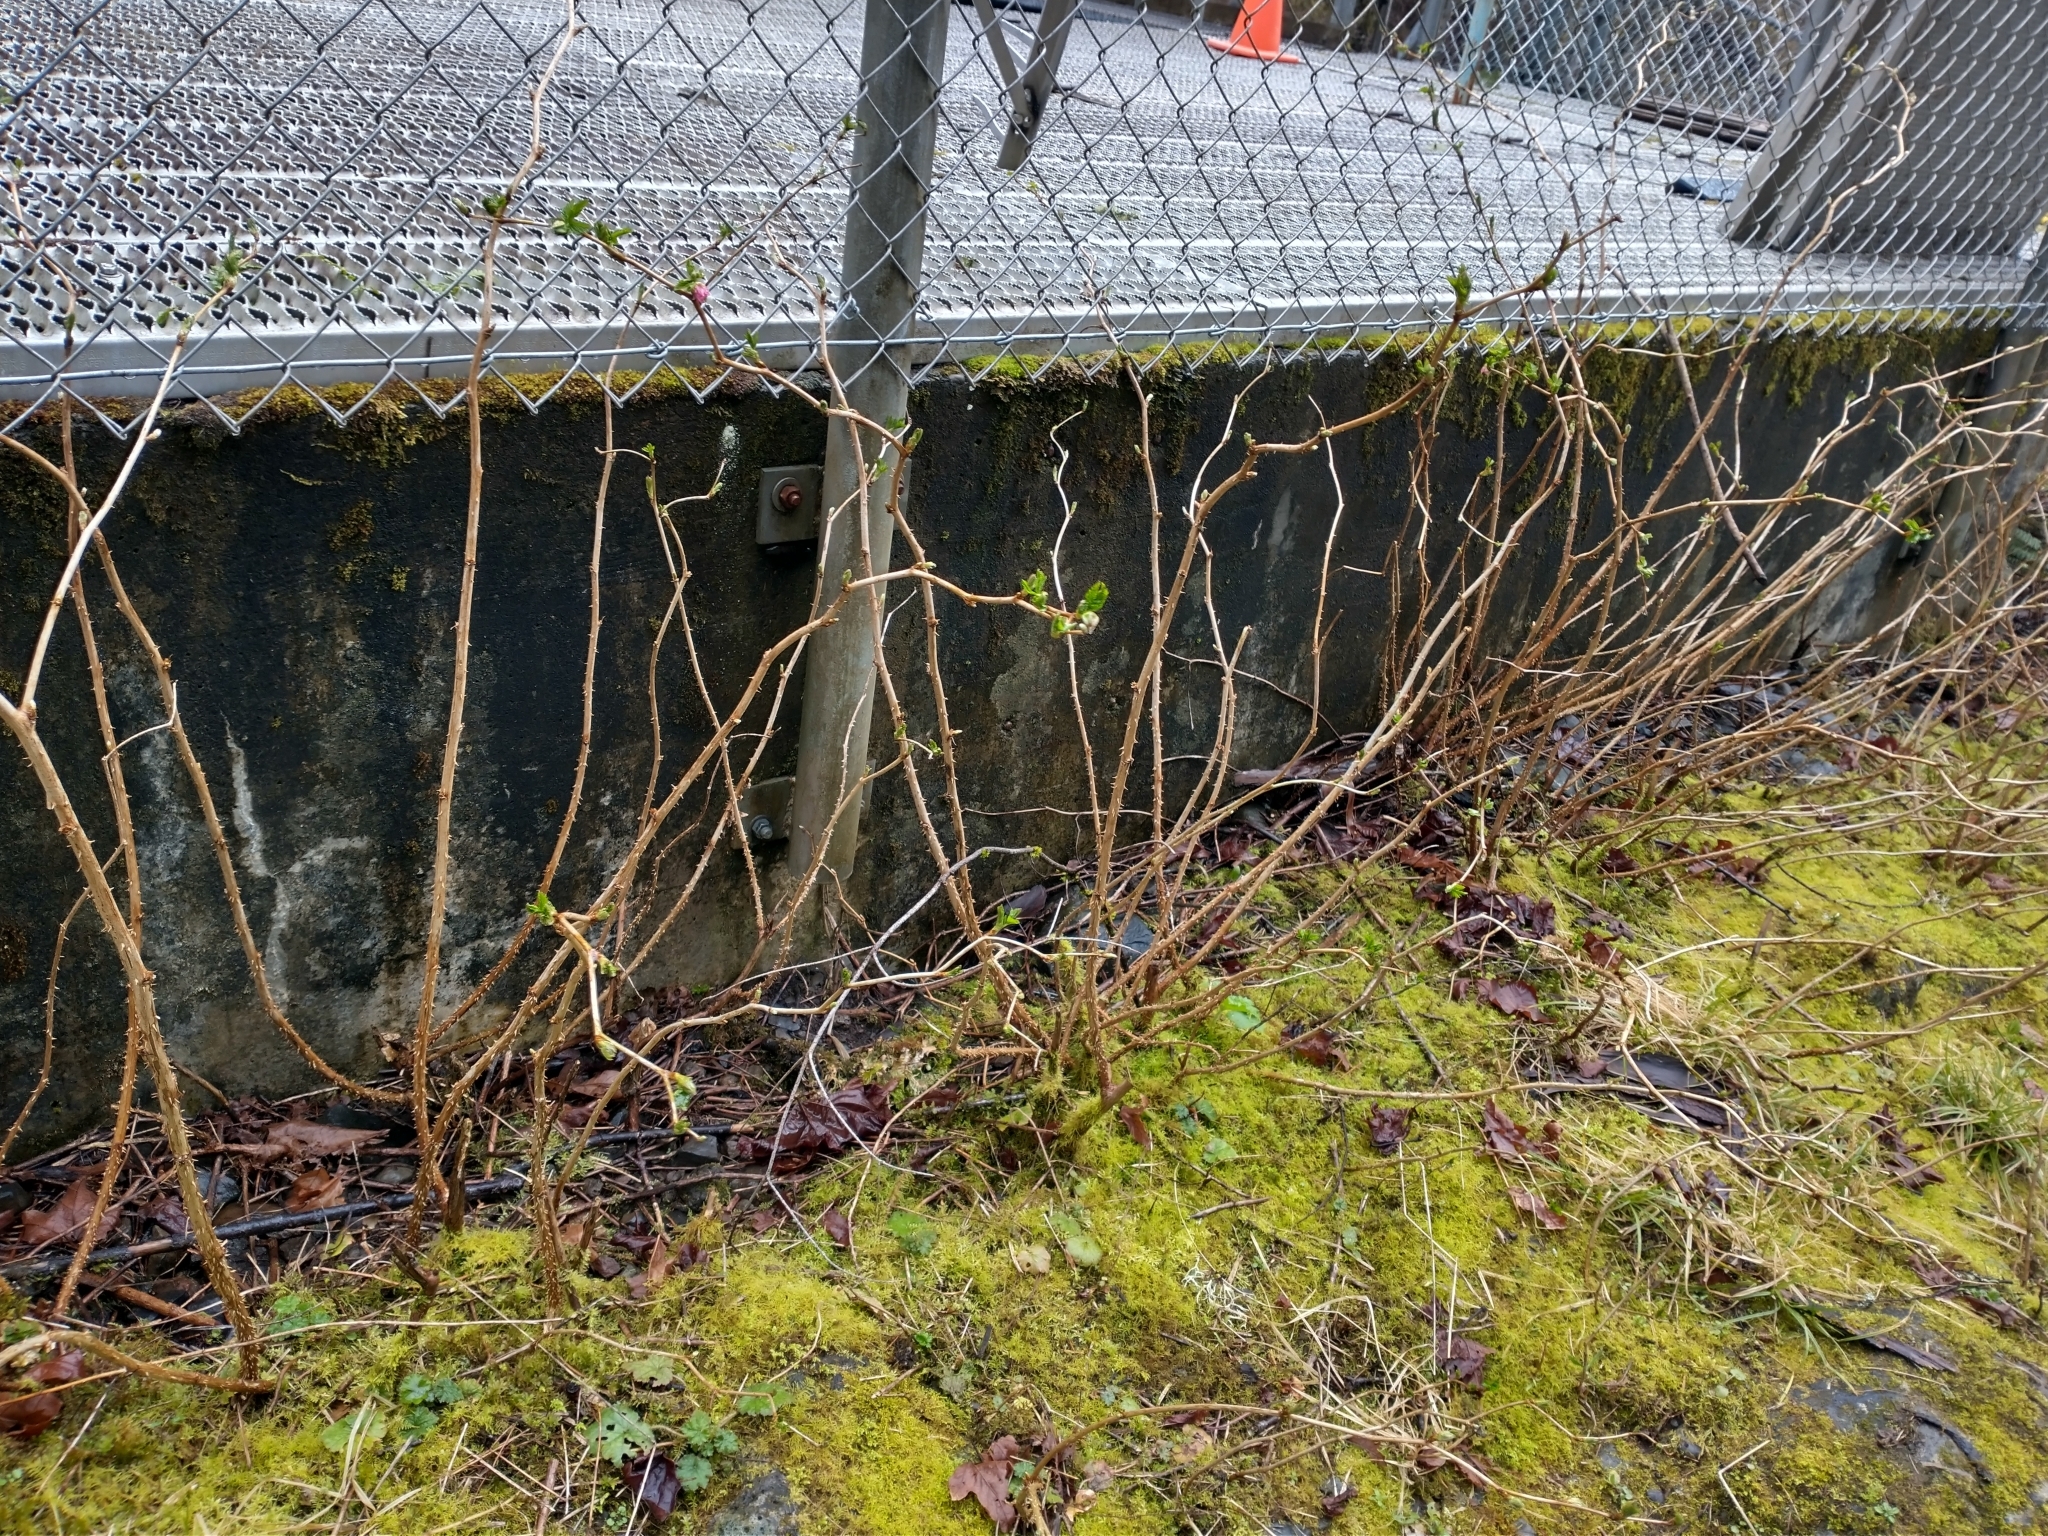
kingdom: Plantae
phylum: Tracheophyta
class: Magnoliopsida
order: Rosales
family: Rosaceae
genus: Rubus
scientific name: Rubus spectabilis
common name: Salmonberry
